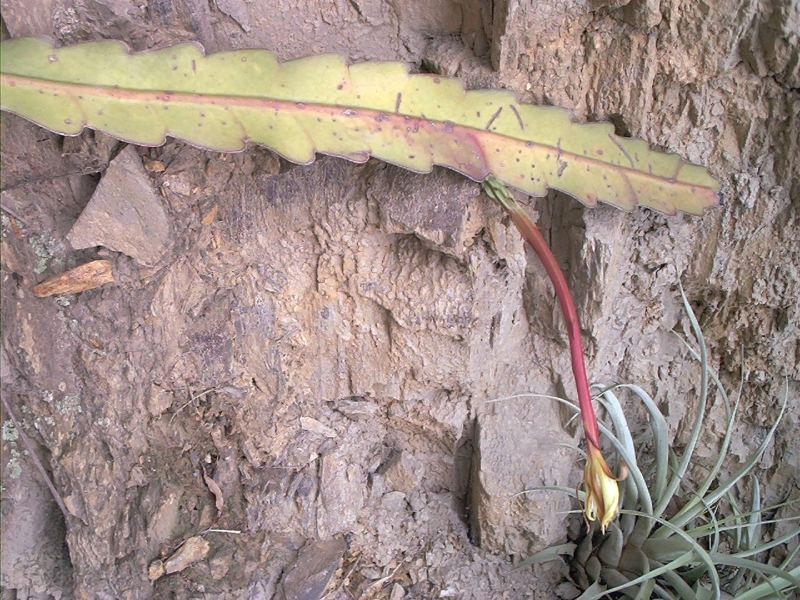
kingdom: Plantae
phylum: Tracheophyta
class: Magnoliopsida
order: Caryophyllales
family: Cactaceae
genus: Epiphyllum
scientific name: Epiphyllum phyllanthus
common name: Climbing cactus
